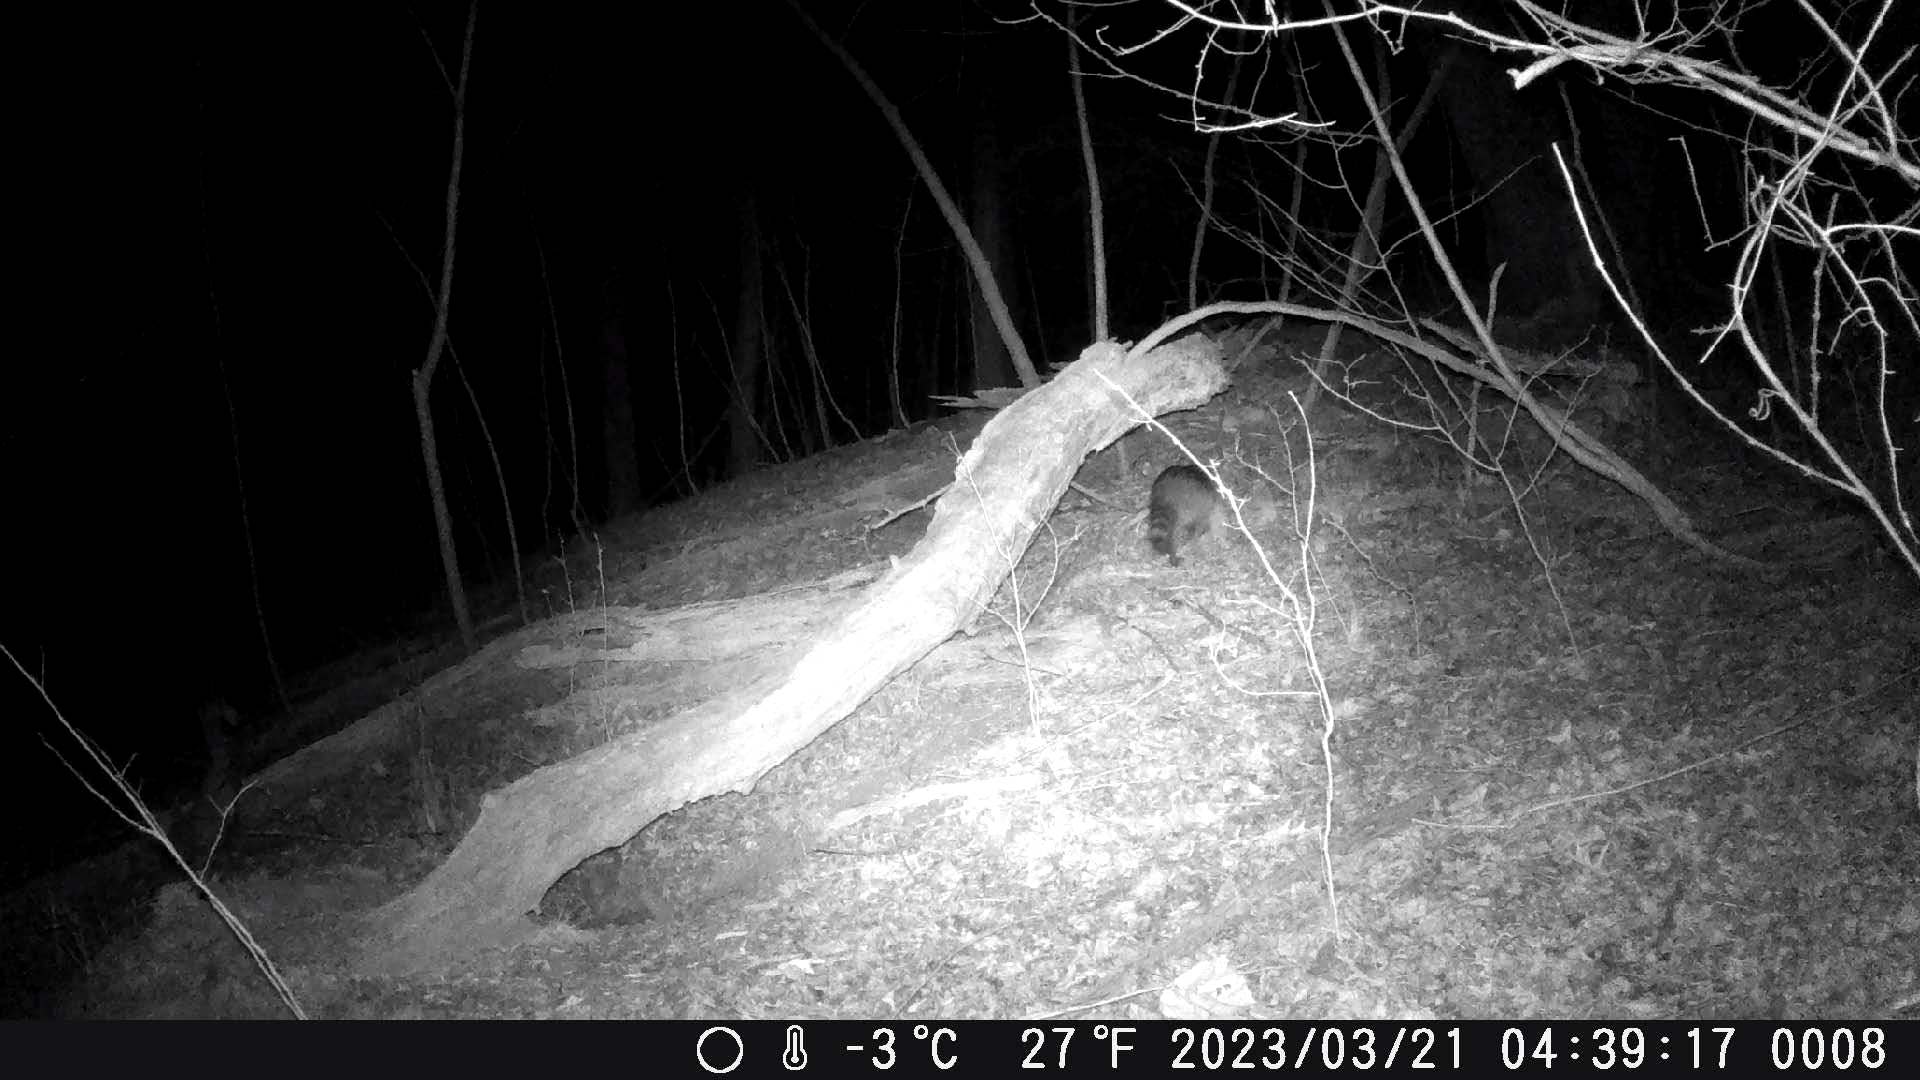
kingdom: Animalia
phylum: Chordata
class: Mammalia
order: Carnivora
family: Procyonidae
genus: Procyon
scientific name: Procyon lotor
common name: Raccoon
